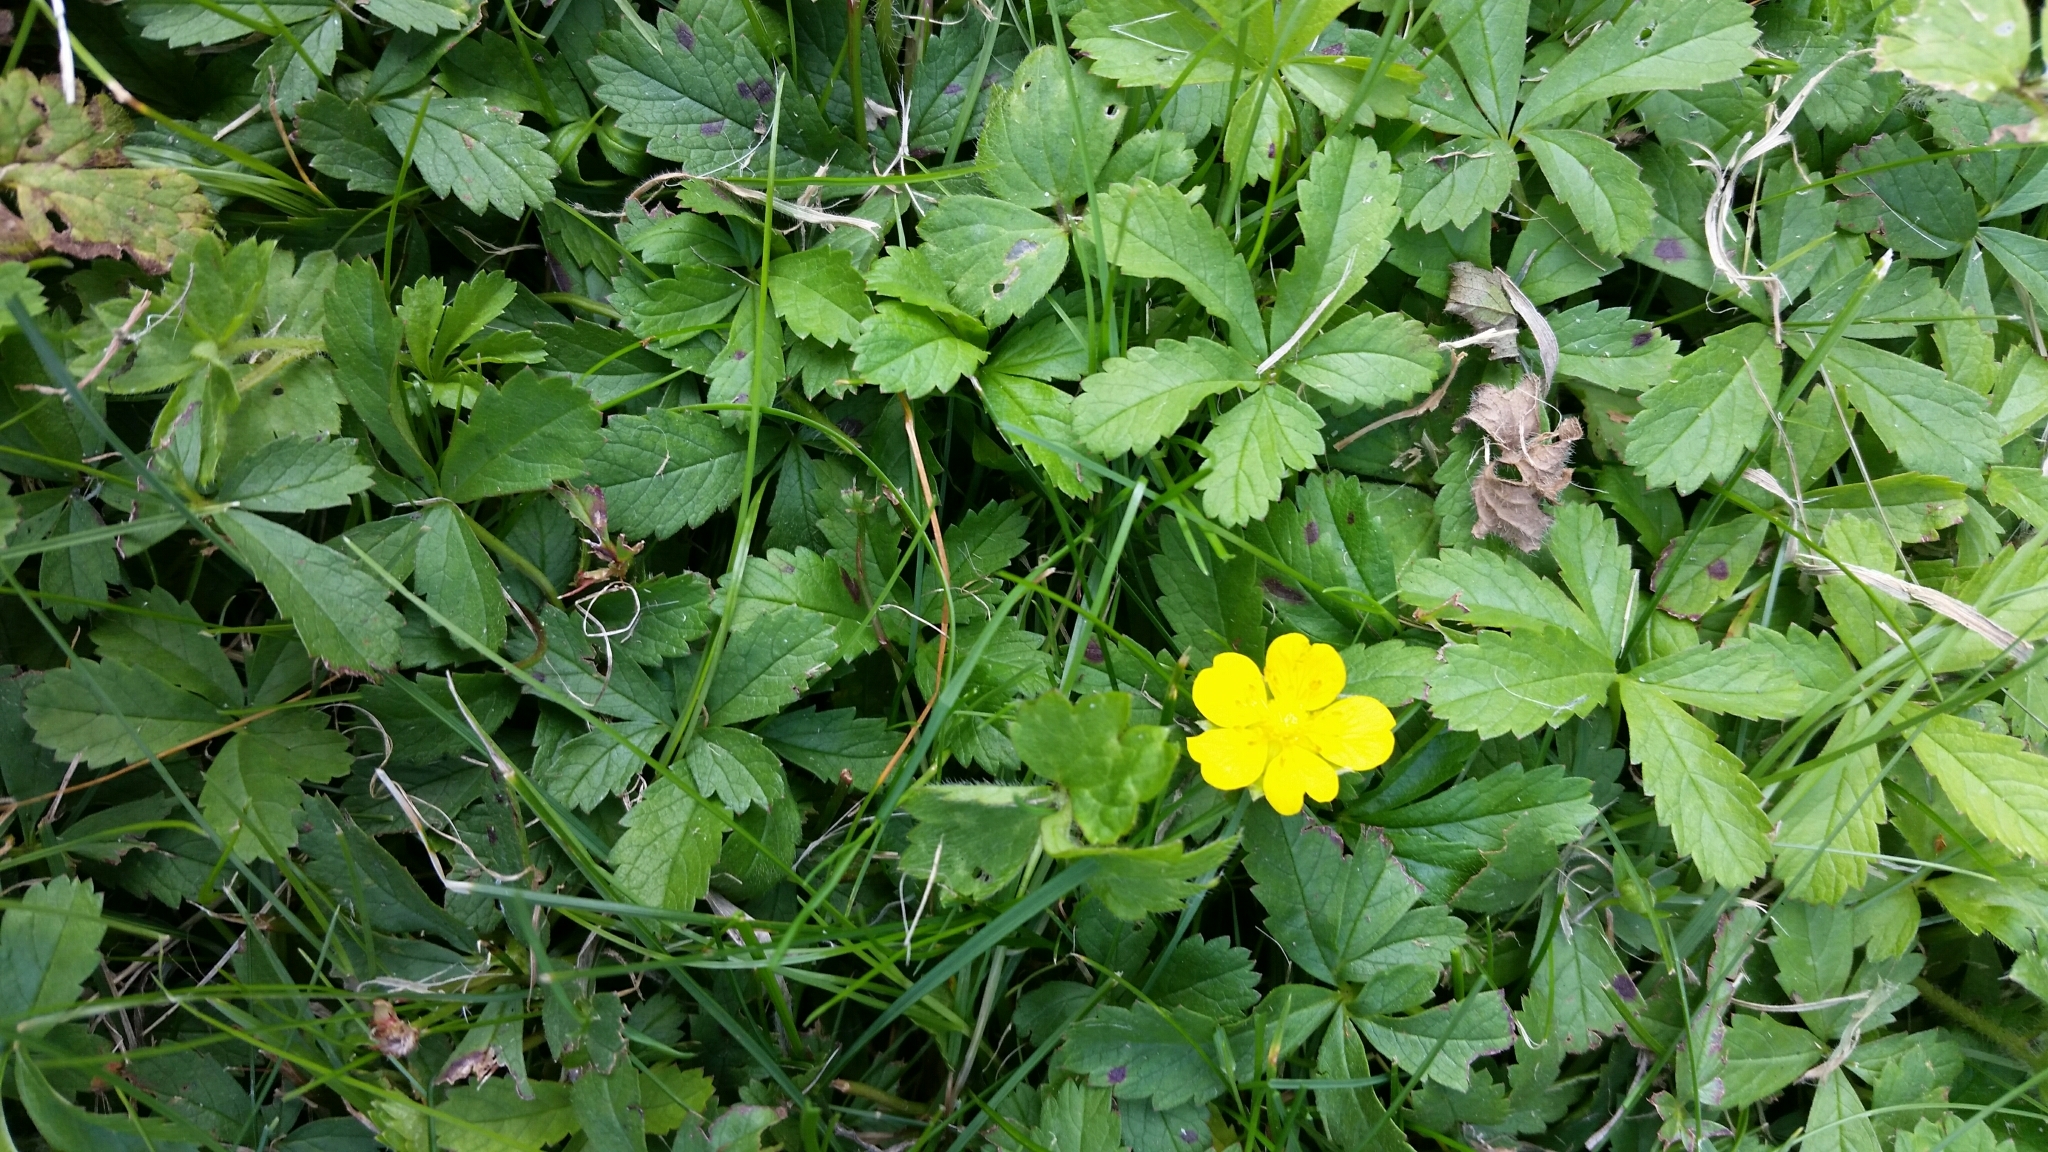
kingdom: Plantae
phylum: Tracheophyta
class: Magnoliopsida
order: Rosales
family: Rosaceae
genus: Potentilla
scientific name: Potentilla reptans
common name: Creeping cinquefoil
